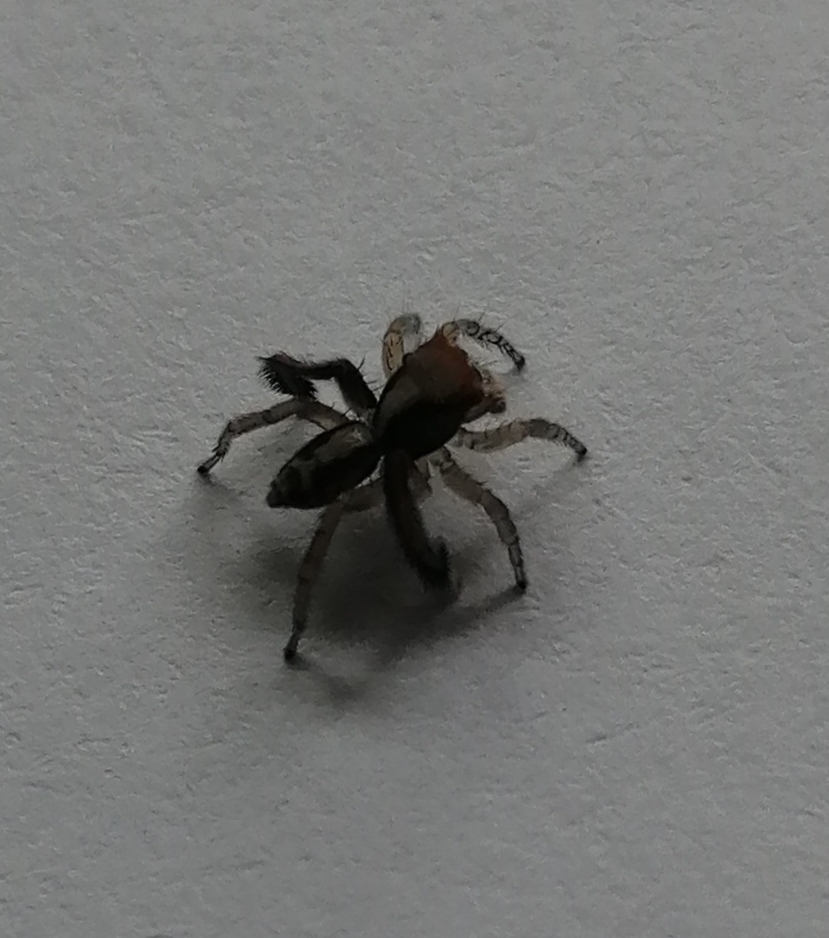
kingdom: Animalia
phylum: Arthropoda
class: Arachnida
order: Araneae
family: Salticidae
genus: Saitis
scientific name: Saitis barbipes
